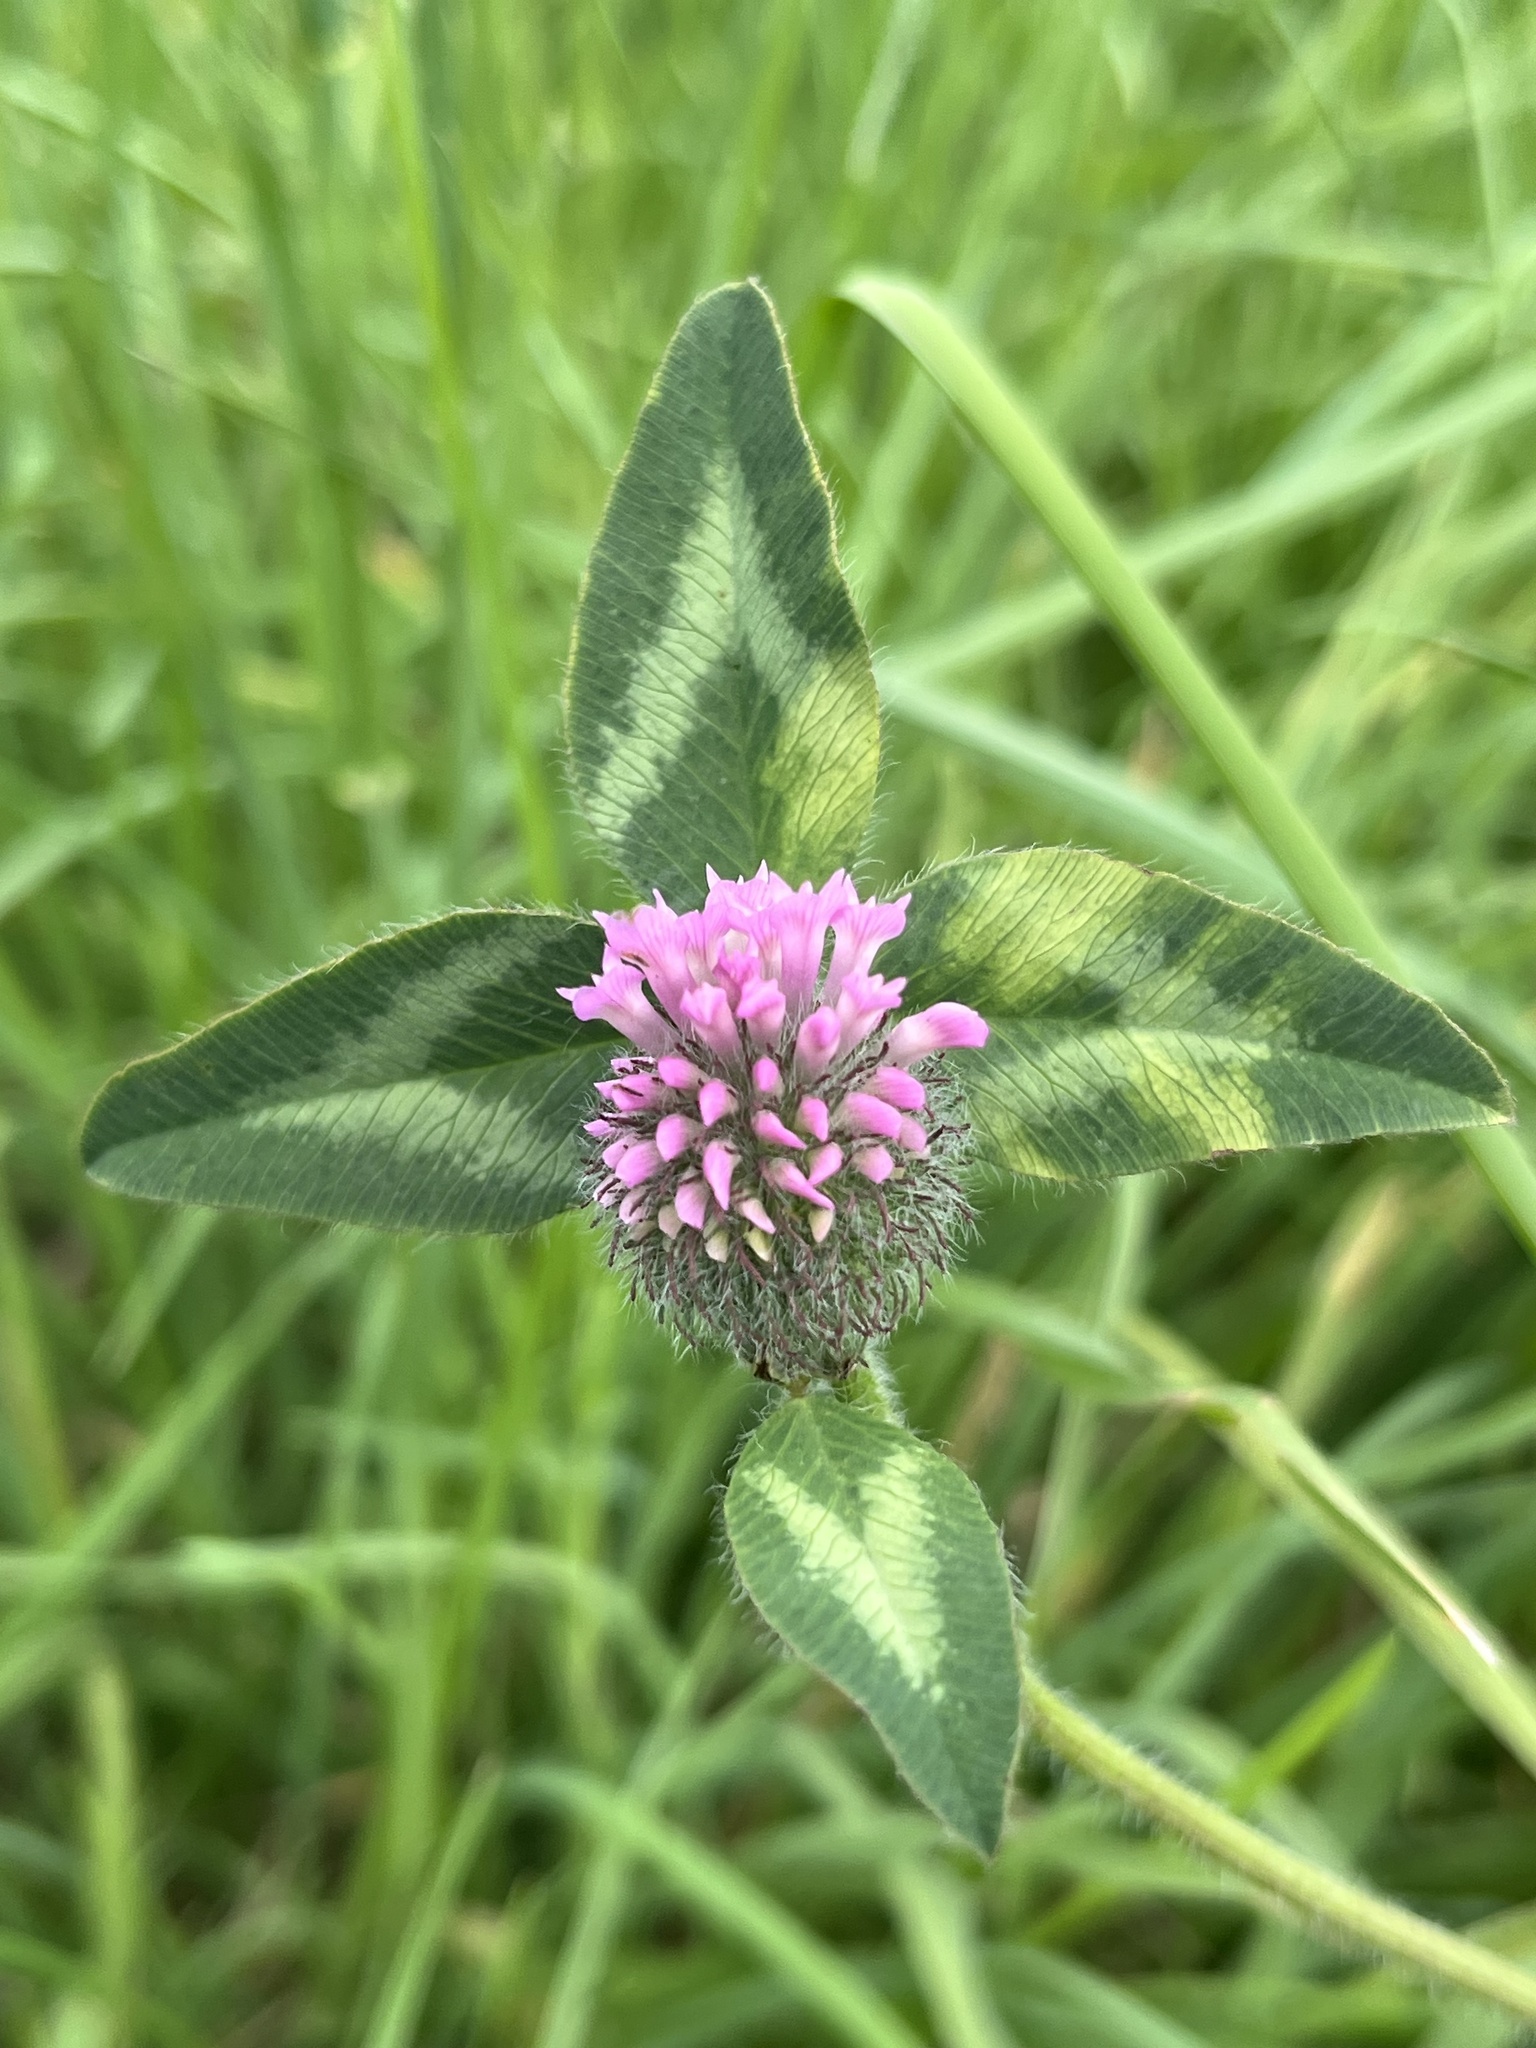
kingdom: Plantae
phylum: Tracheophyta
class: Magnoliopsida
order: Fabales
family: Fabaceae
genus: Trifolium
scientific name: Trifolium pratense
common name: Red clover
